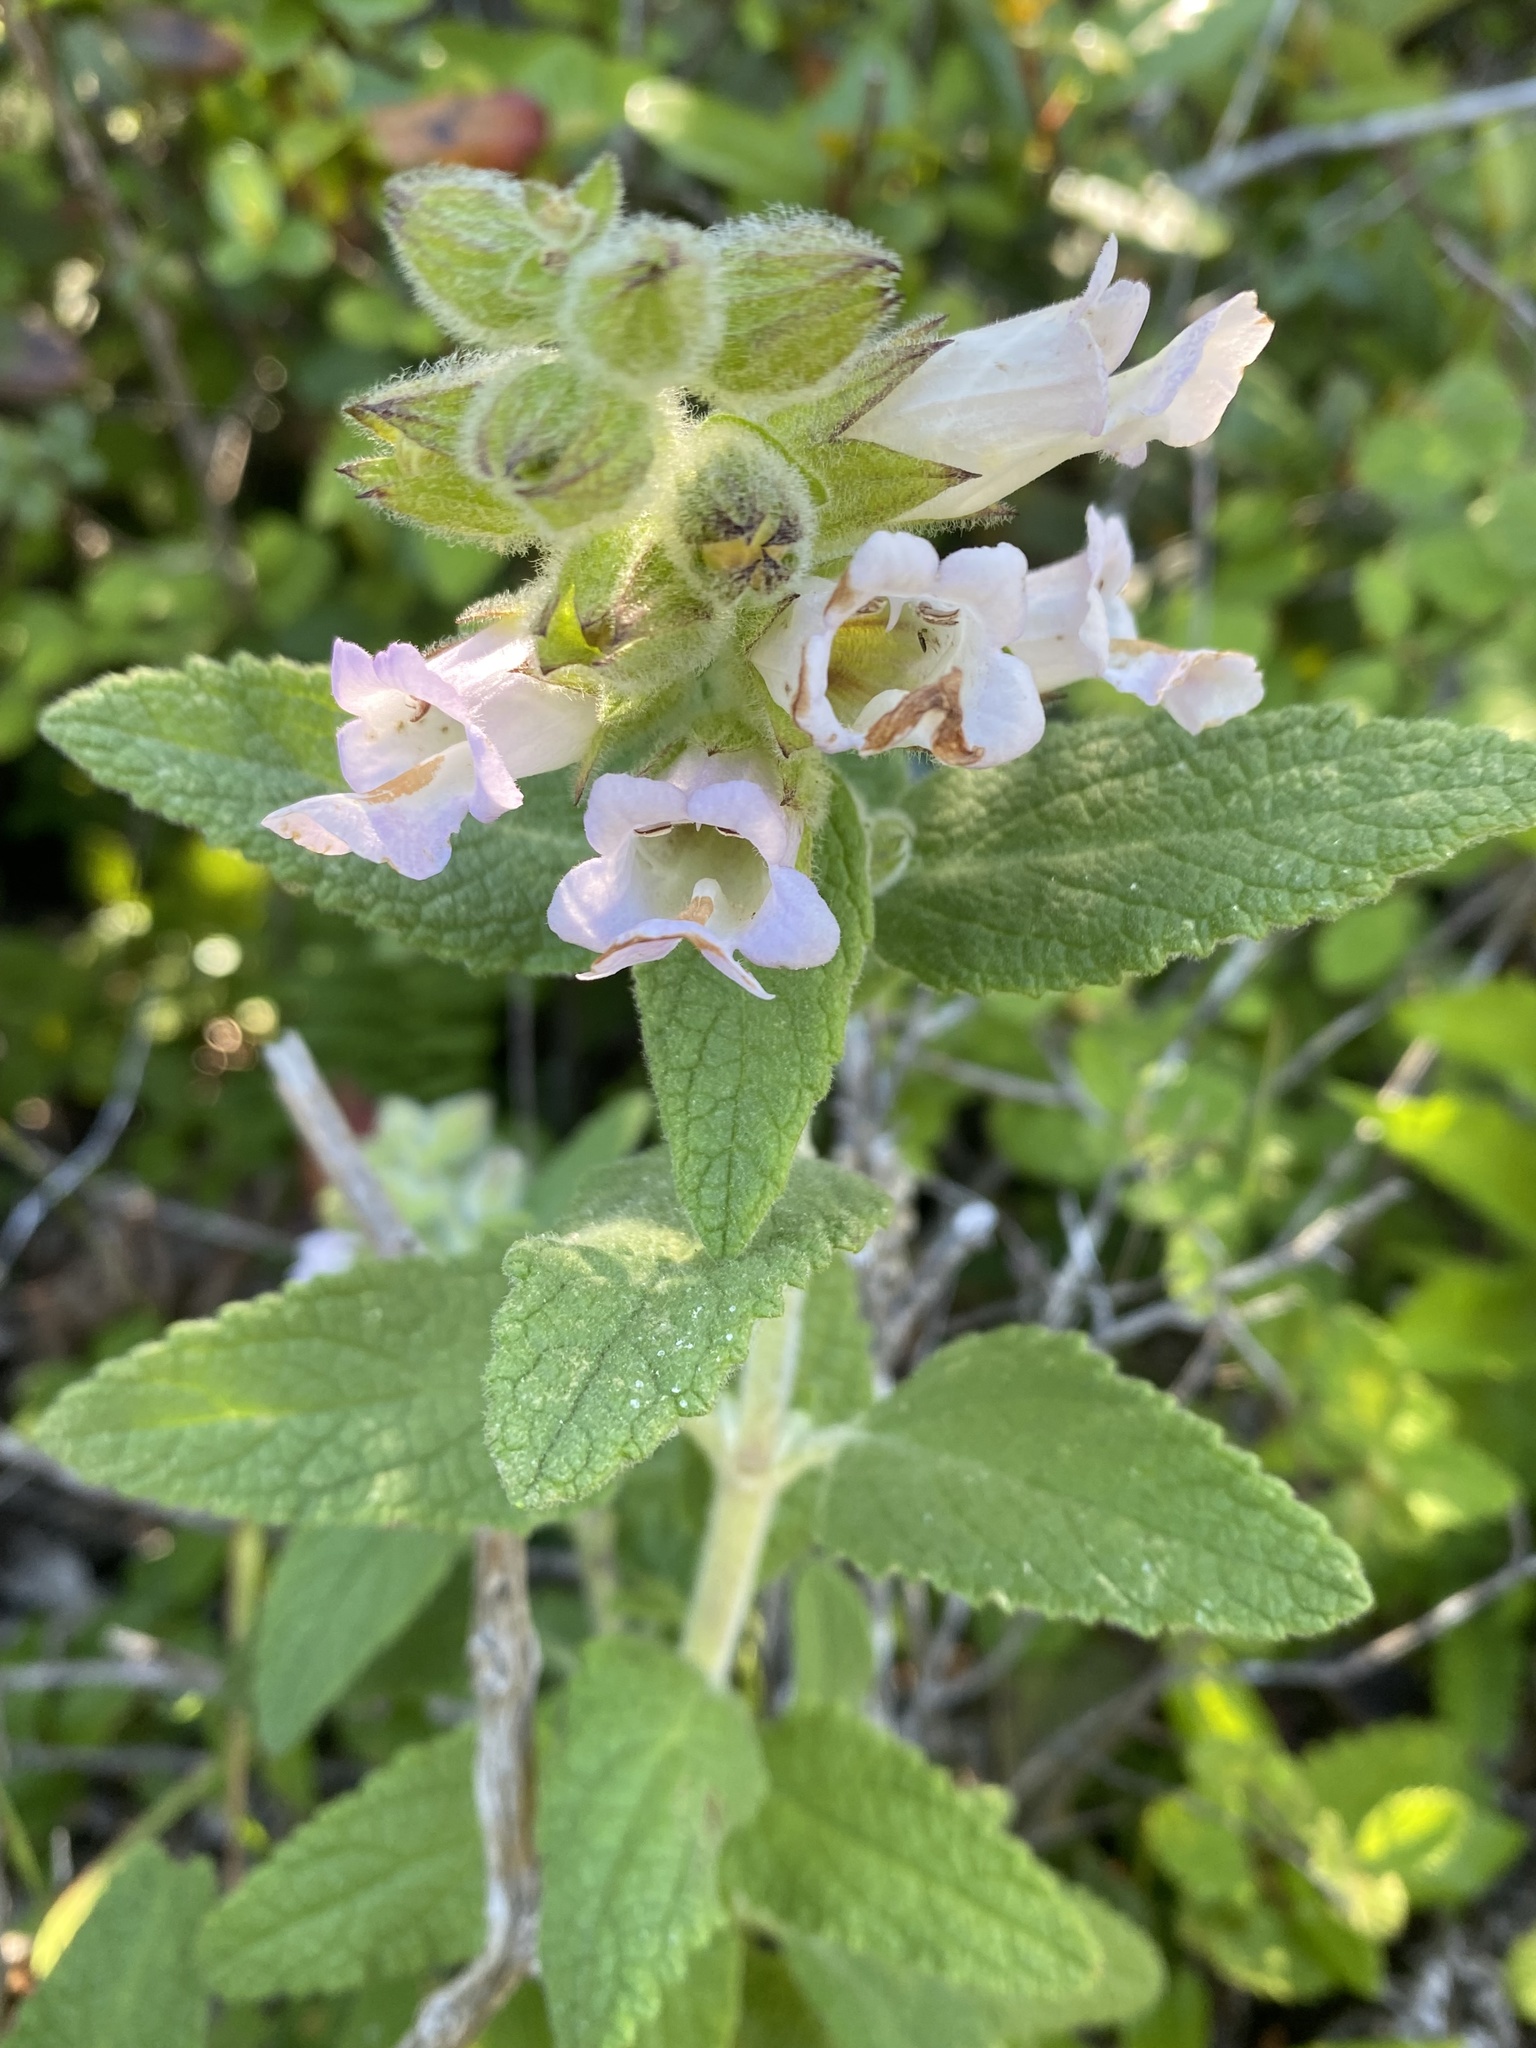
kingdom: Plantae
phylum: Tracheophyta
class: Magnoliopsida
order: Lamiales
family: Lamiaceae
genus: Lepechinia
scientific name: Lepechinia calycina
